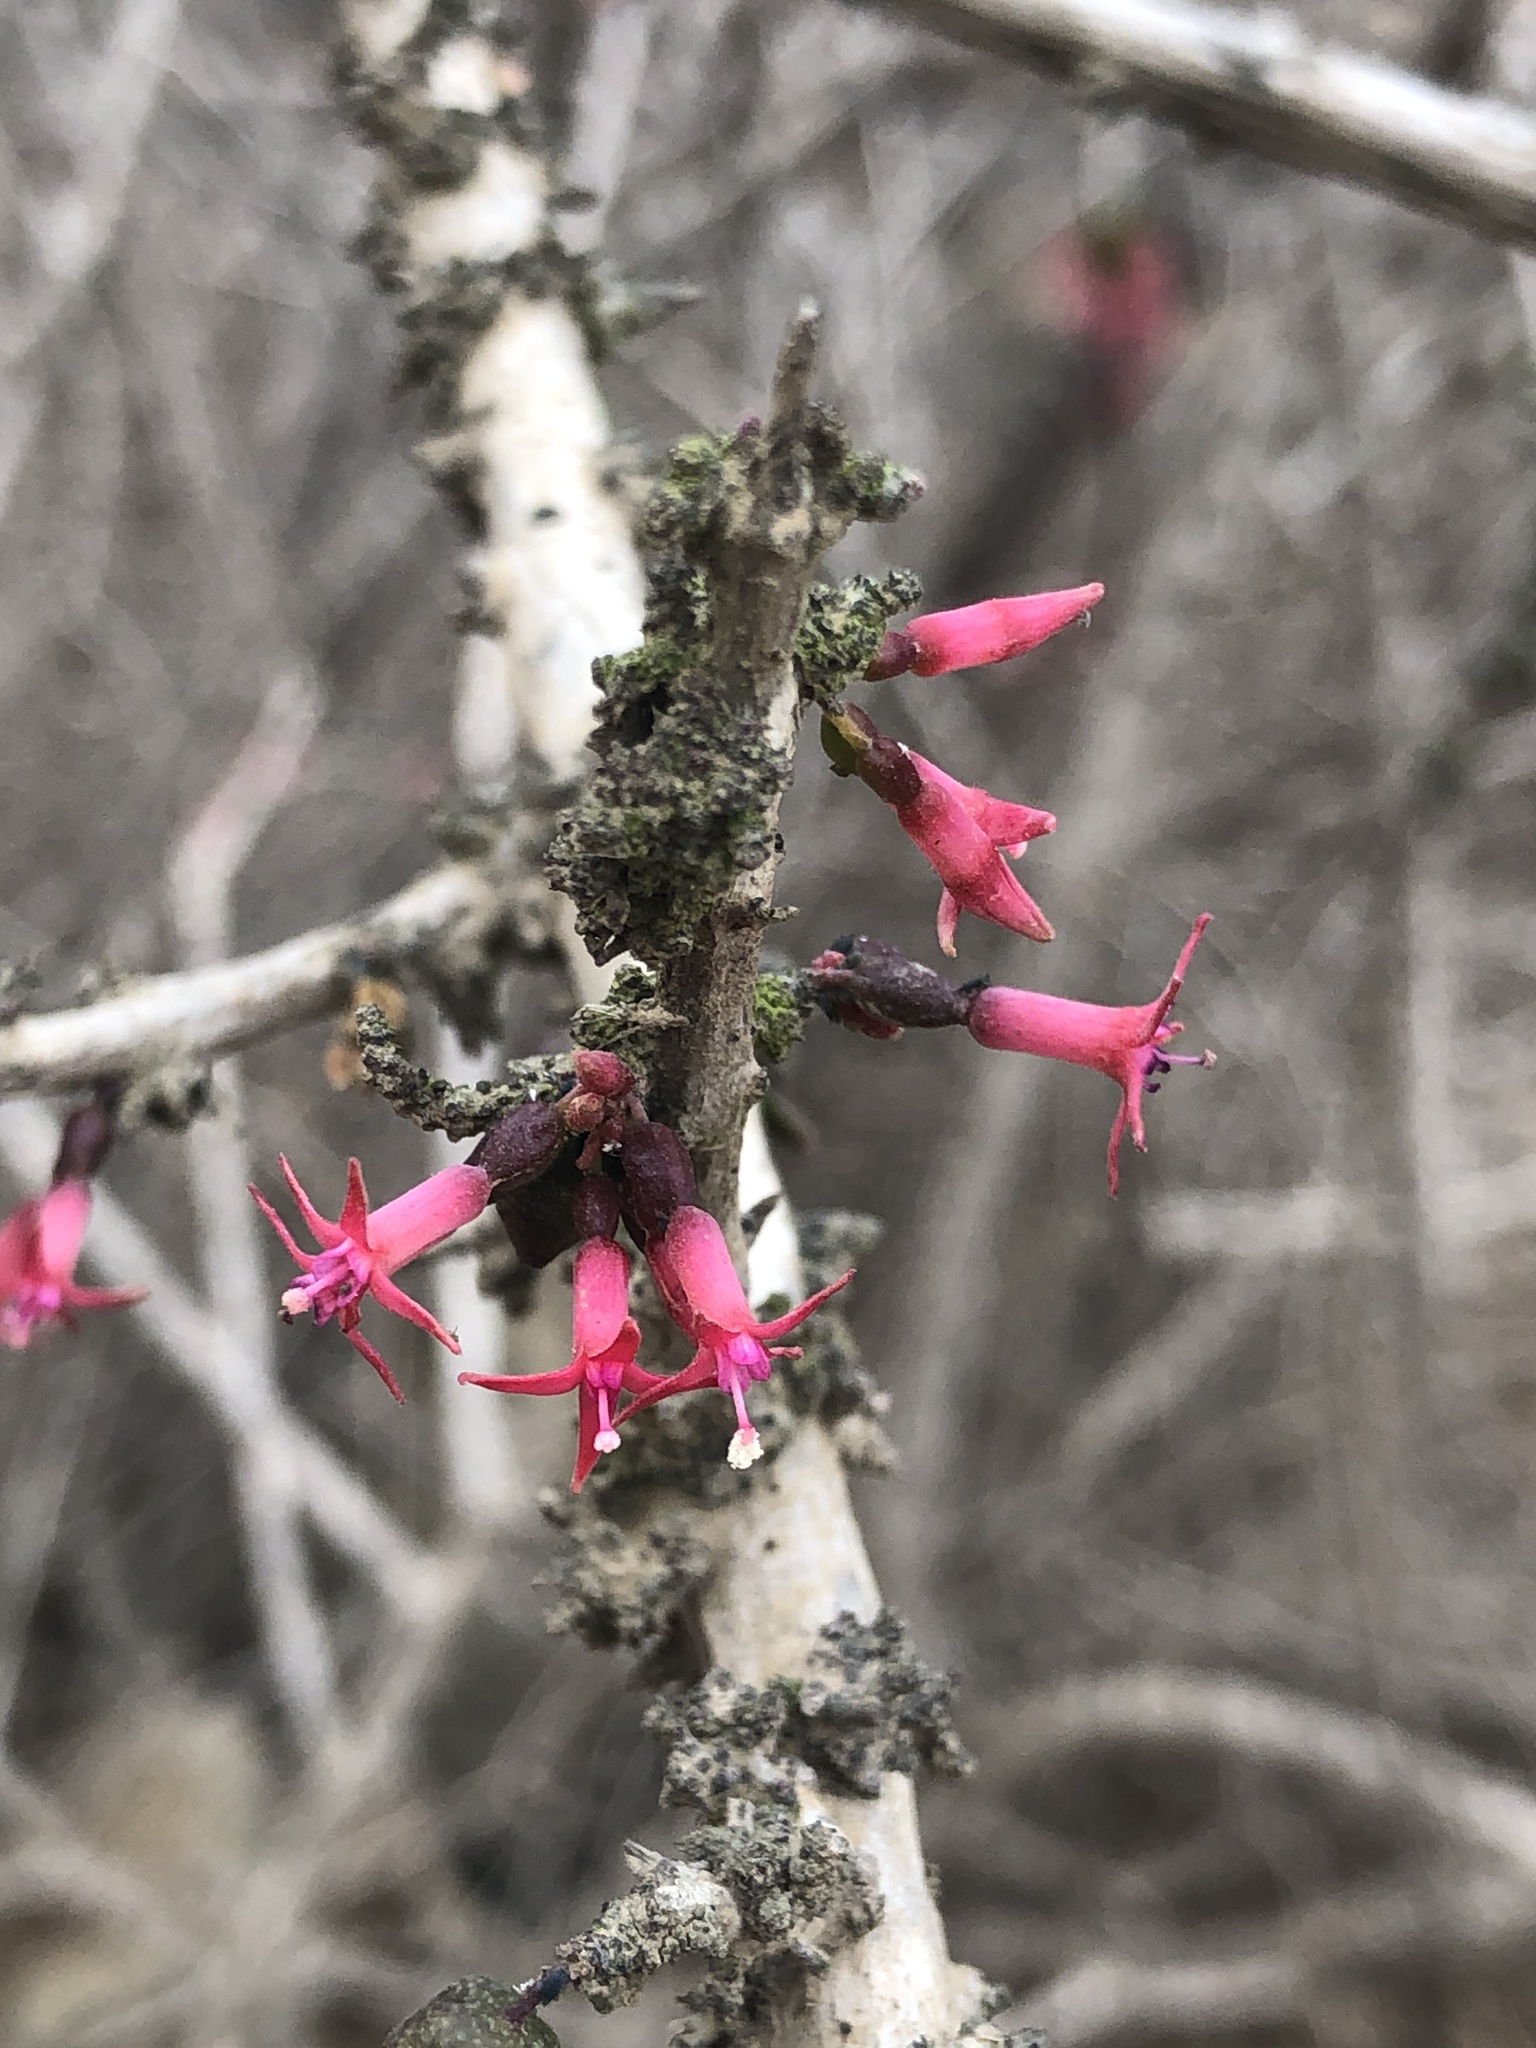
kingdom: Plantae
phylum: Tracheophyta
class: Magnoliopsida
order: Myrtales
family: Onagraceae
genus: Fuchsia
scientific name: Fuchsia lycioides
